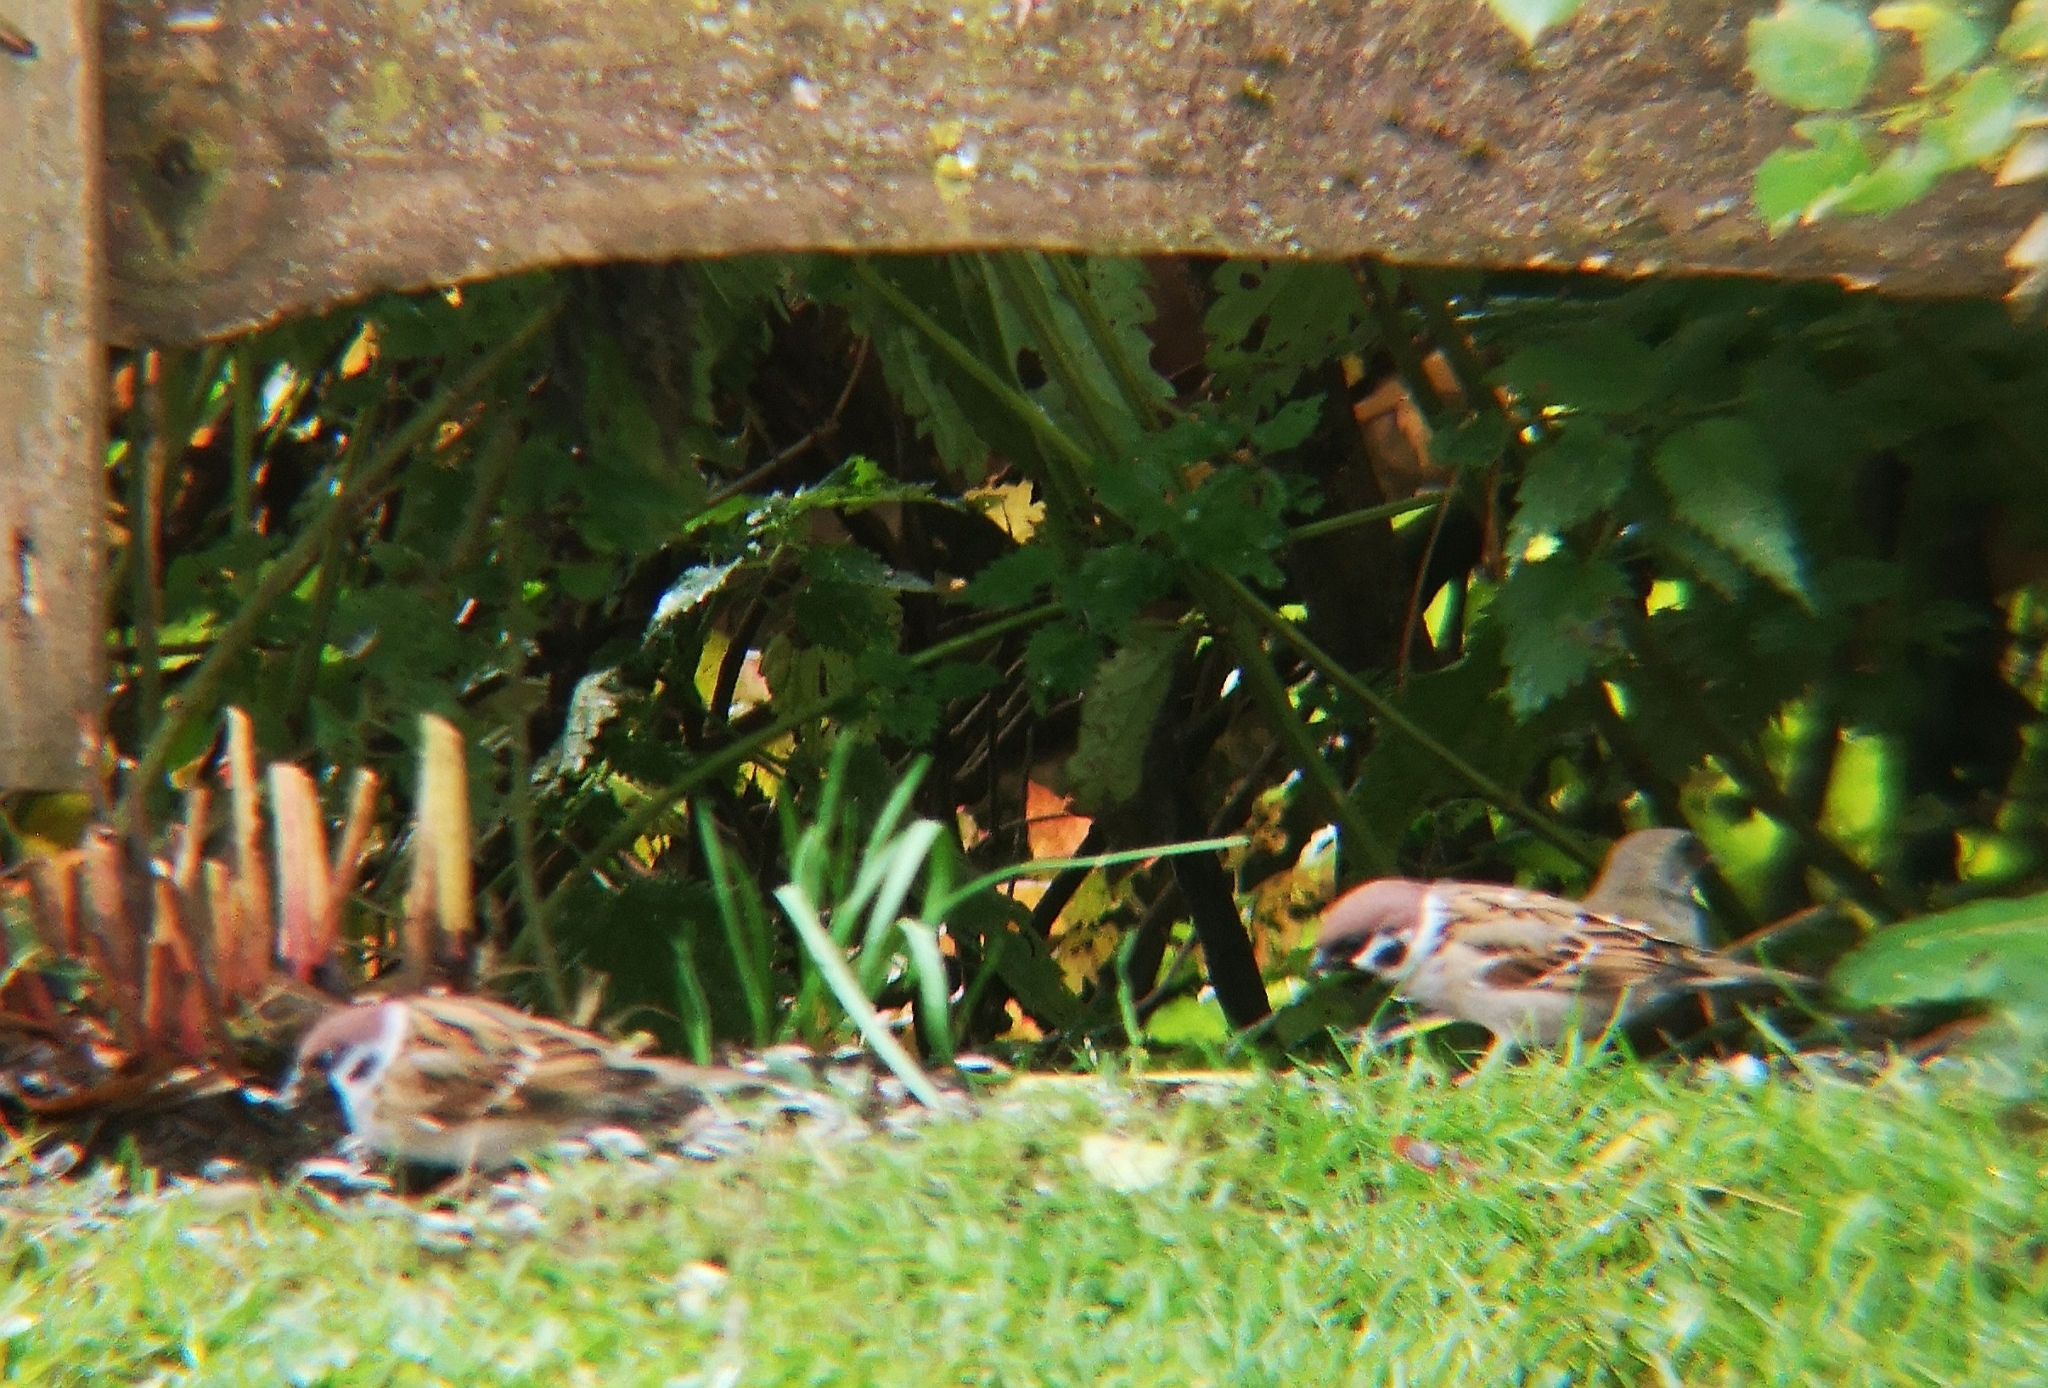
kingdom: Animalia
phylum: Chordata
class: Aves
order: Passeriformes
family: Passeridae
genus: Passer
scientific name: Passer montanus
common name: Eurasian tree sparrow
